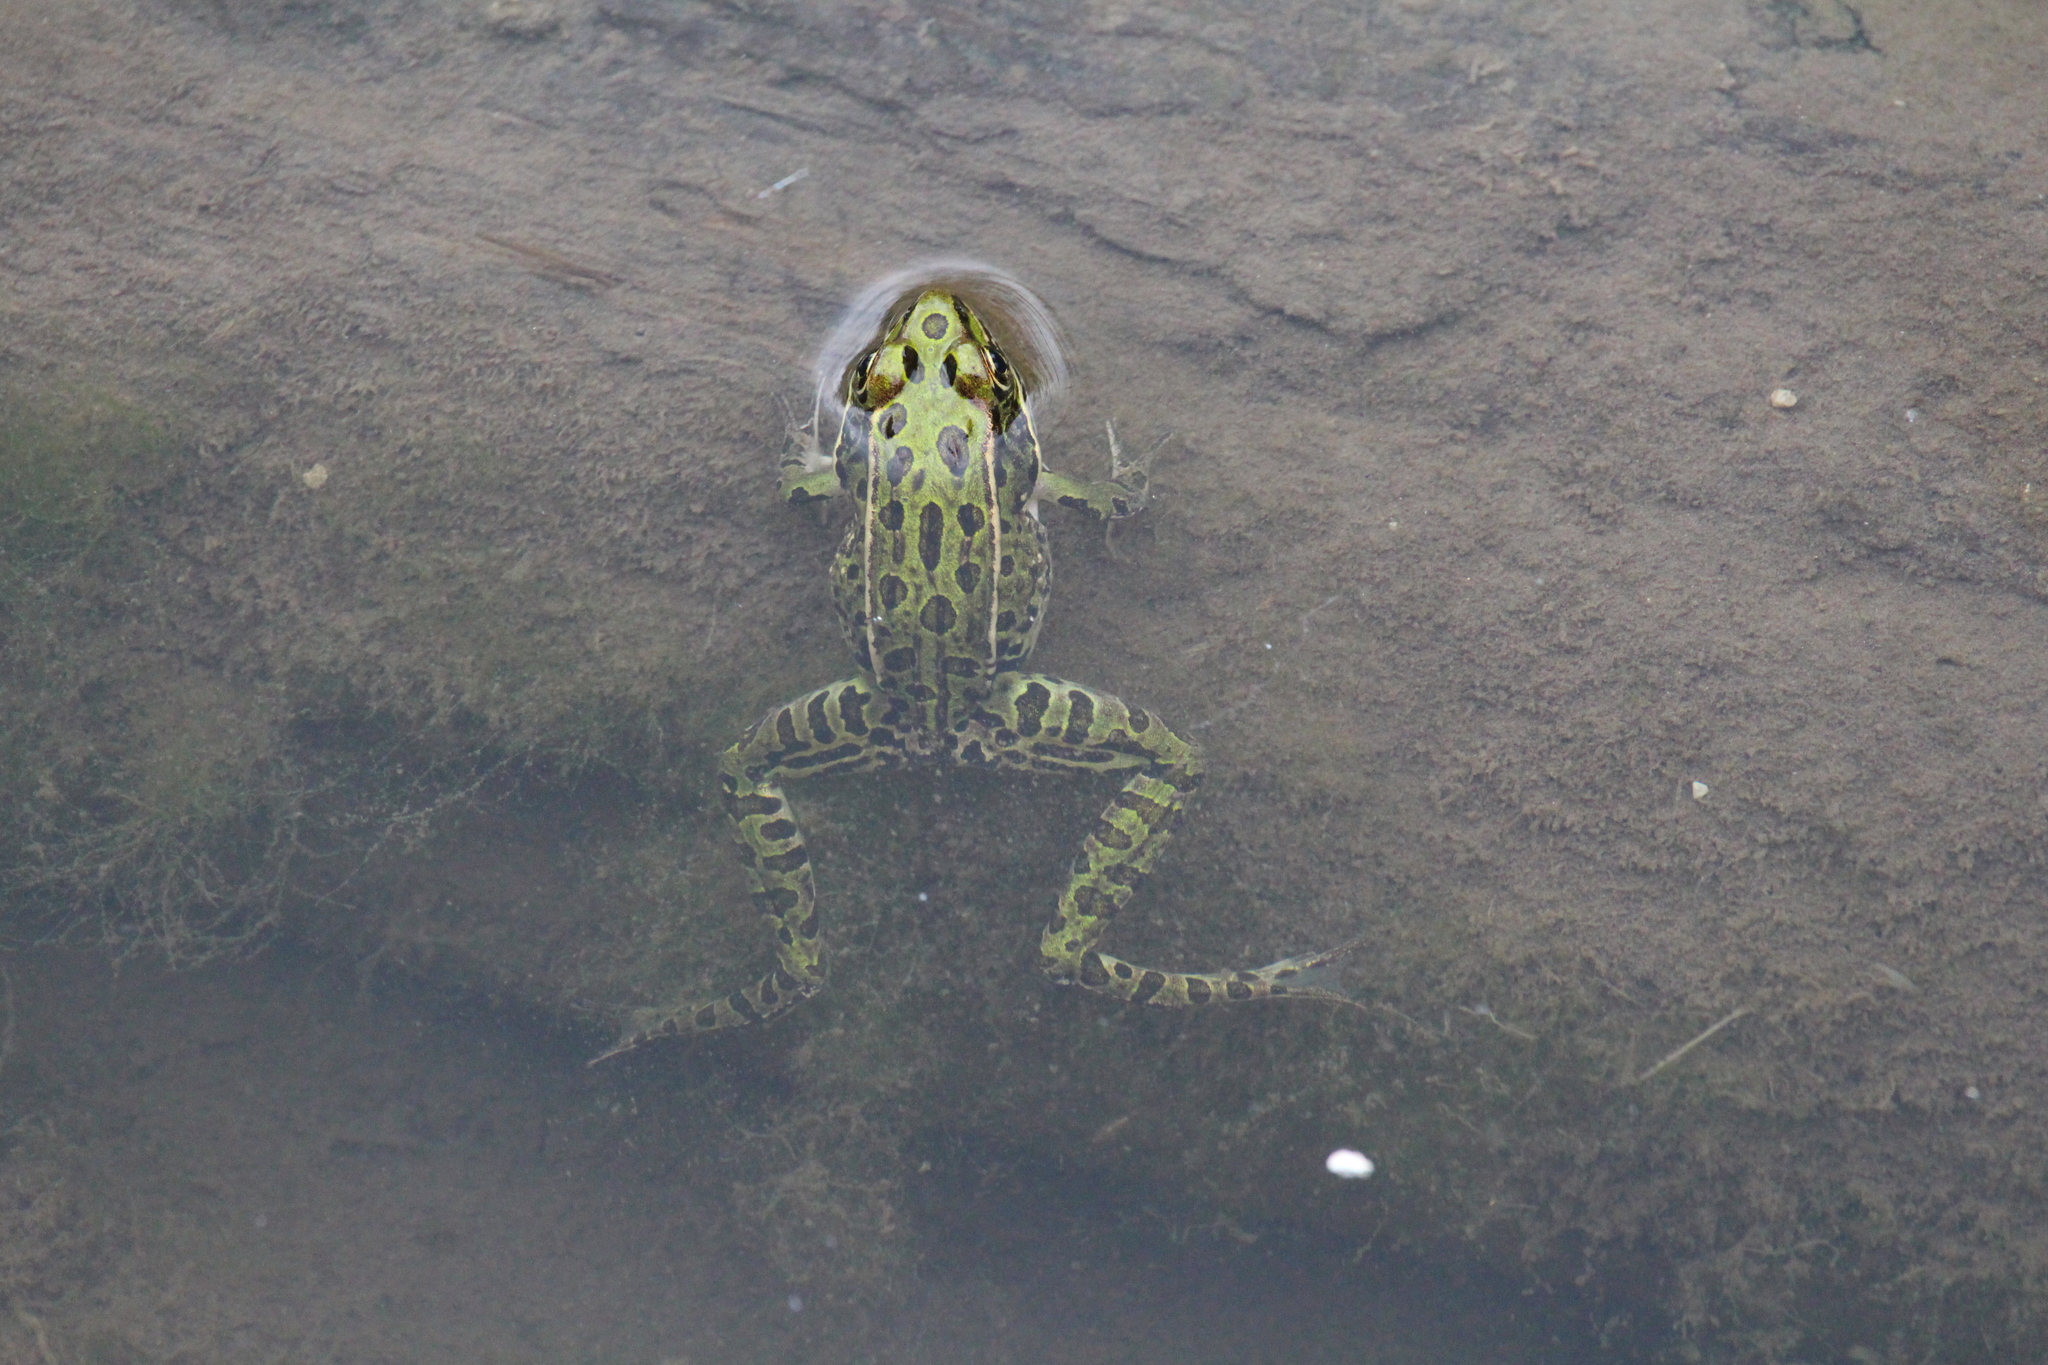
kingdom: Animalia
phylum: Chordata
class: Amphibia
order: Anura
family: Ranidae
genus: Lithobates
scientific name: Lithobates pipiens
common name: Northern leopard frog
